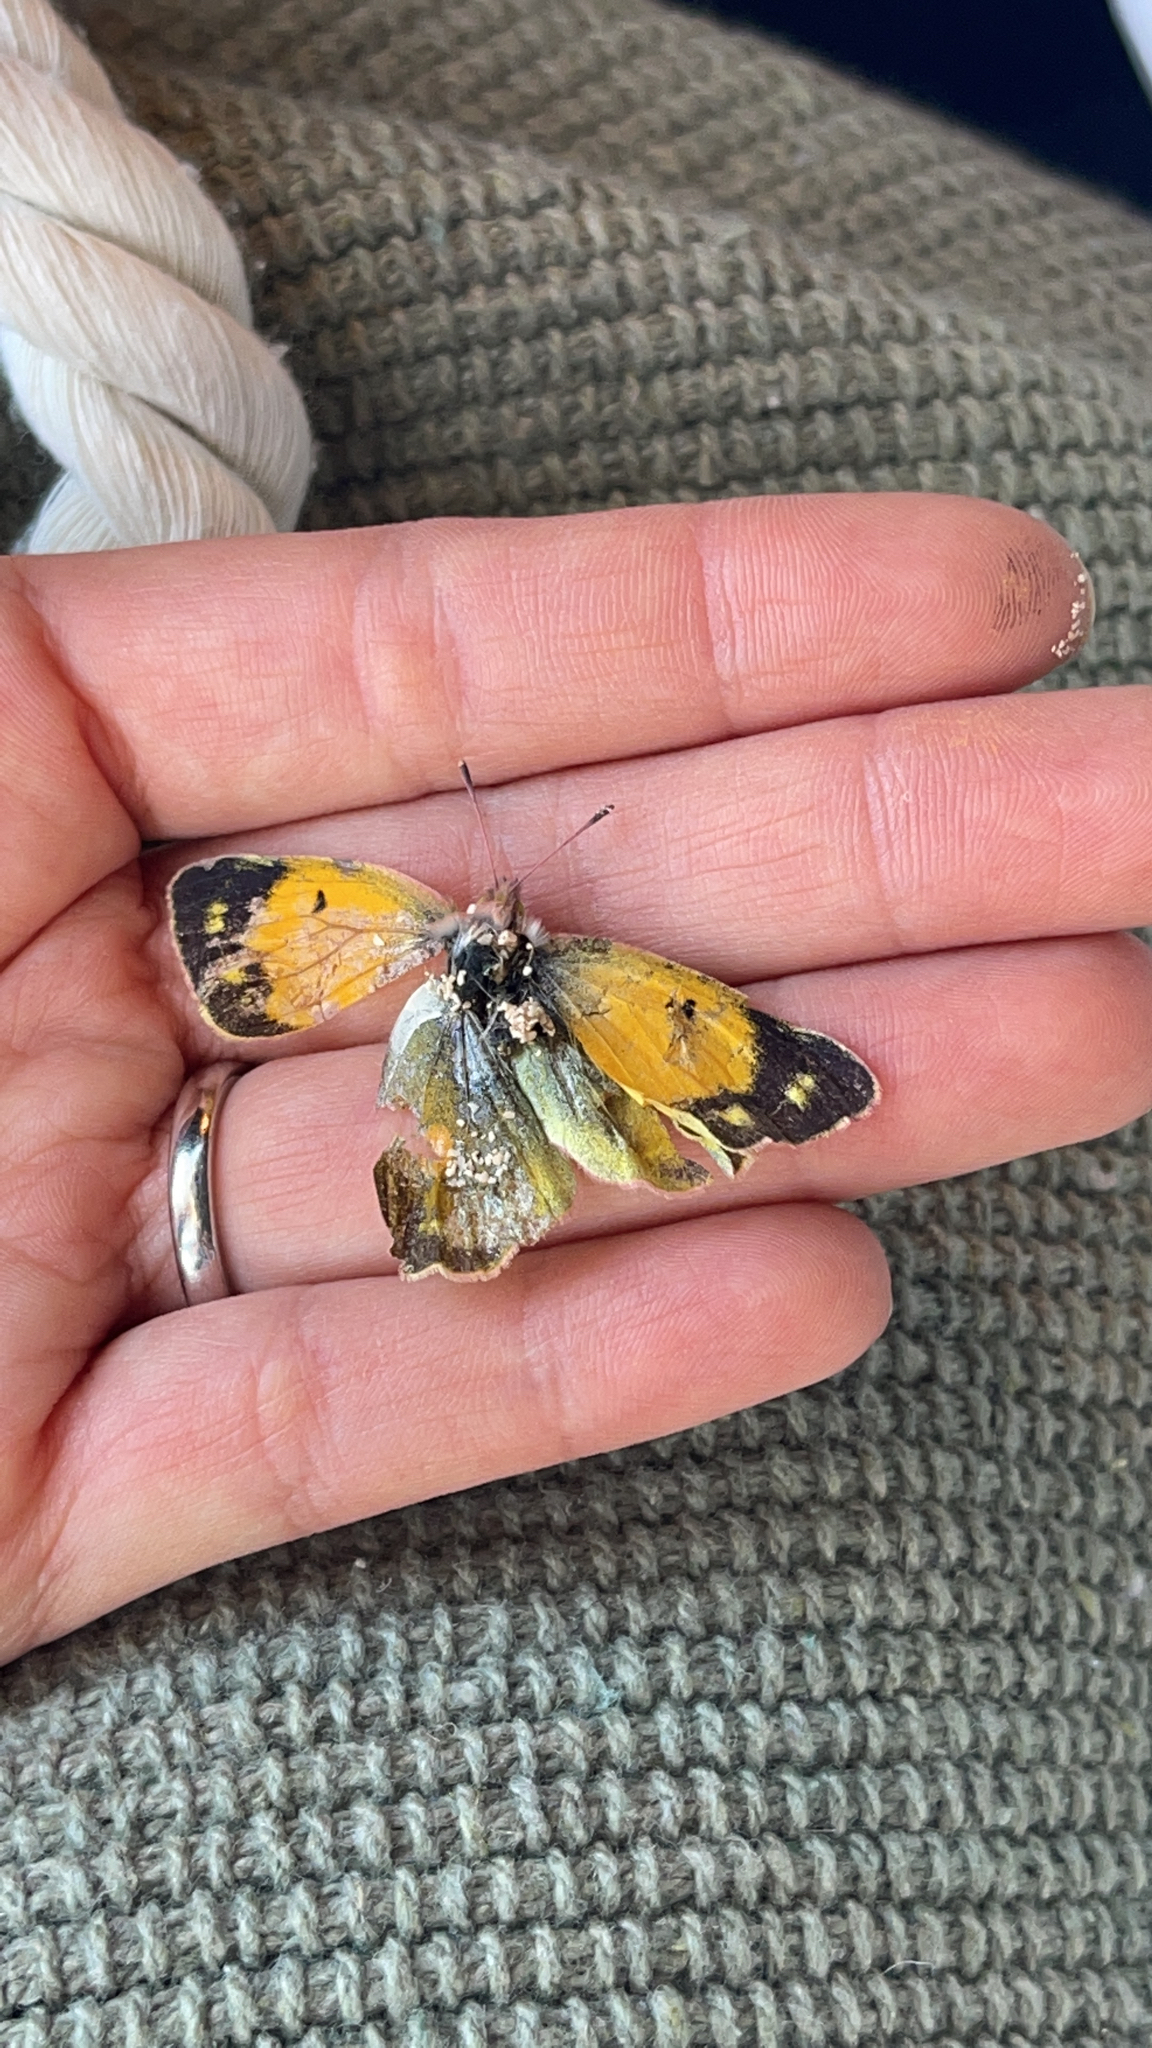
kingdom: Animalia
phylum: Arthropoda
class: Insecta
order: Lepidoptera
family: Pieridae
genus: Colias
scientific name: Colias croceus
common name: Clouded yellow
